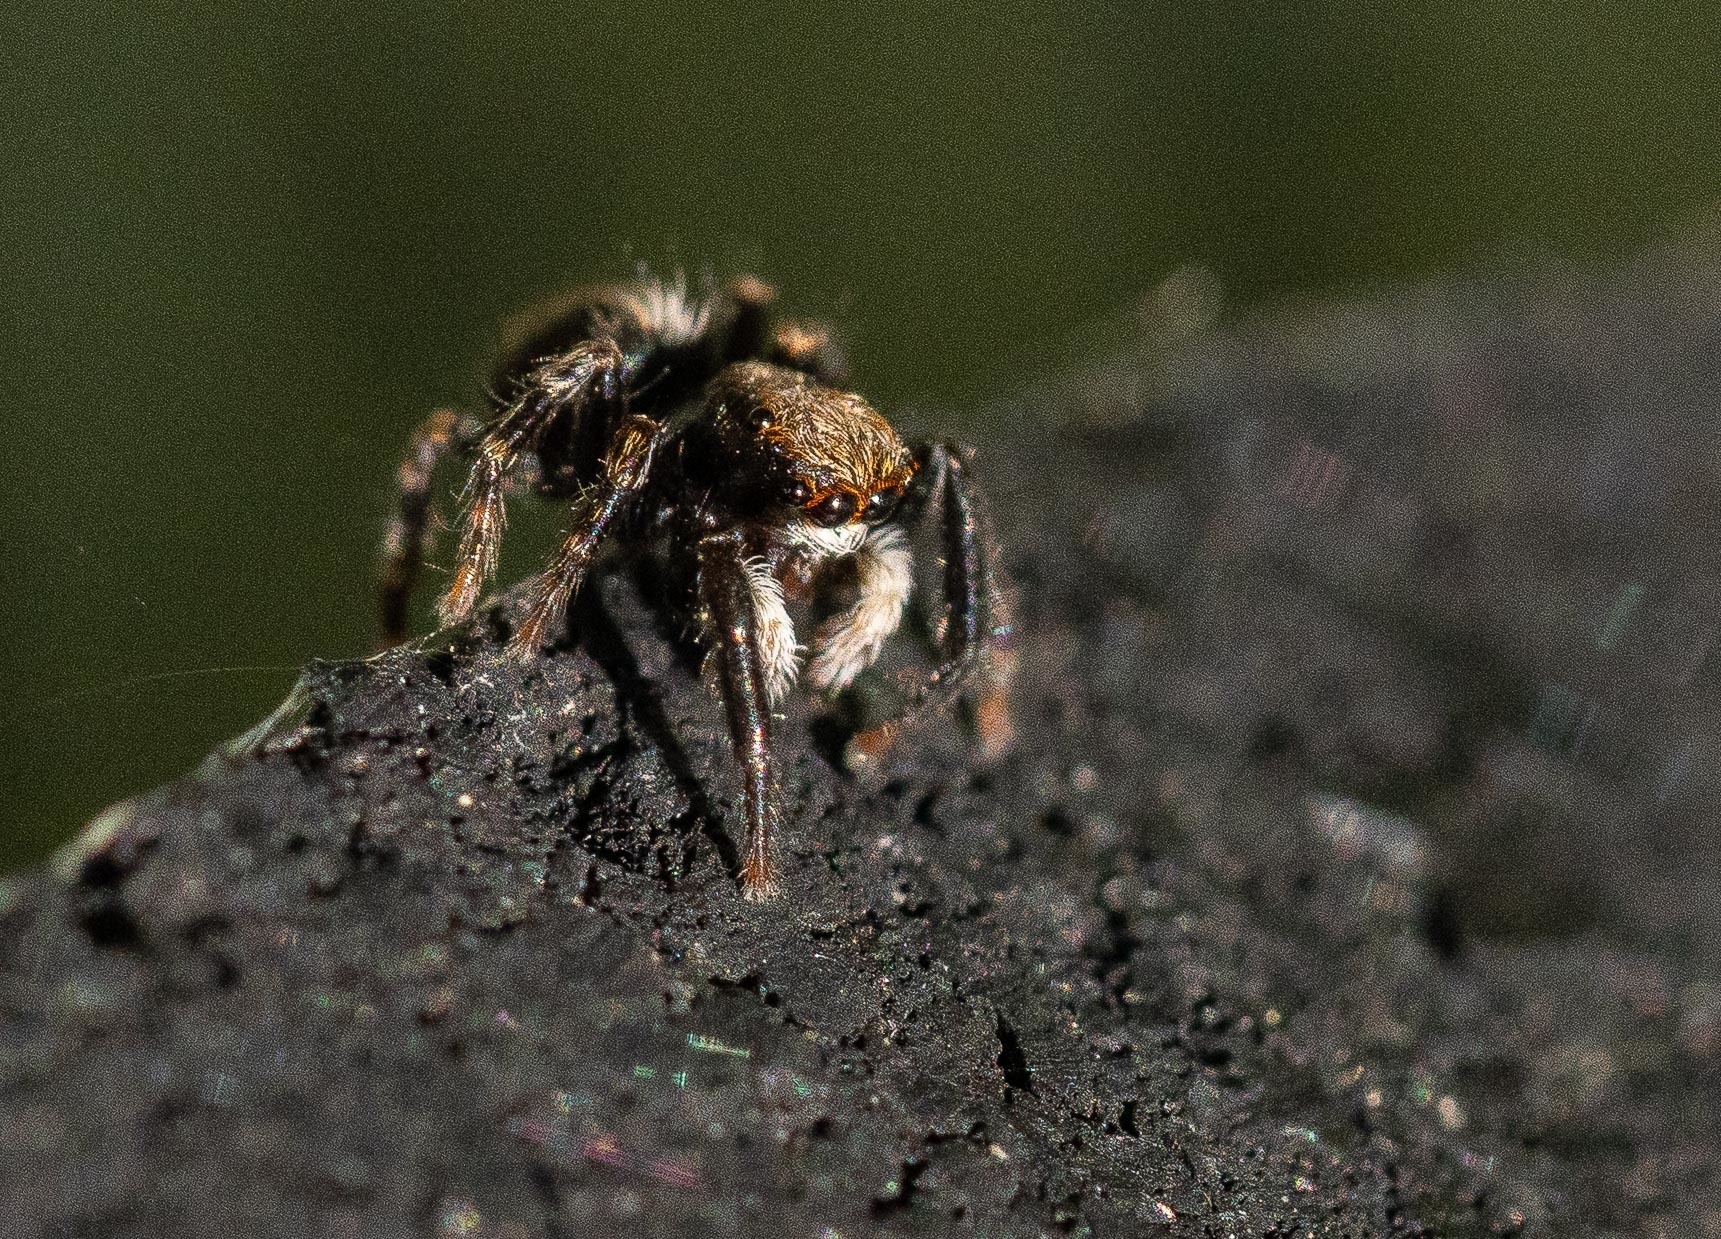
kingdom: Animalia
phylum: Arthropoda
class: Arachnida
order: Araneae
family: Salticidae
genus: Pseudeuophrys
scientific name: Pseudeuophrys lanigera
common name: Jumping spider
